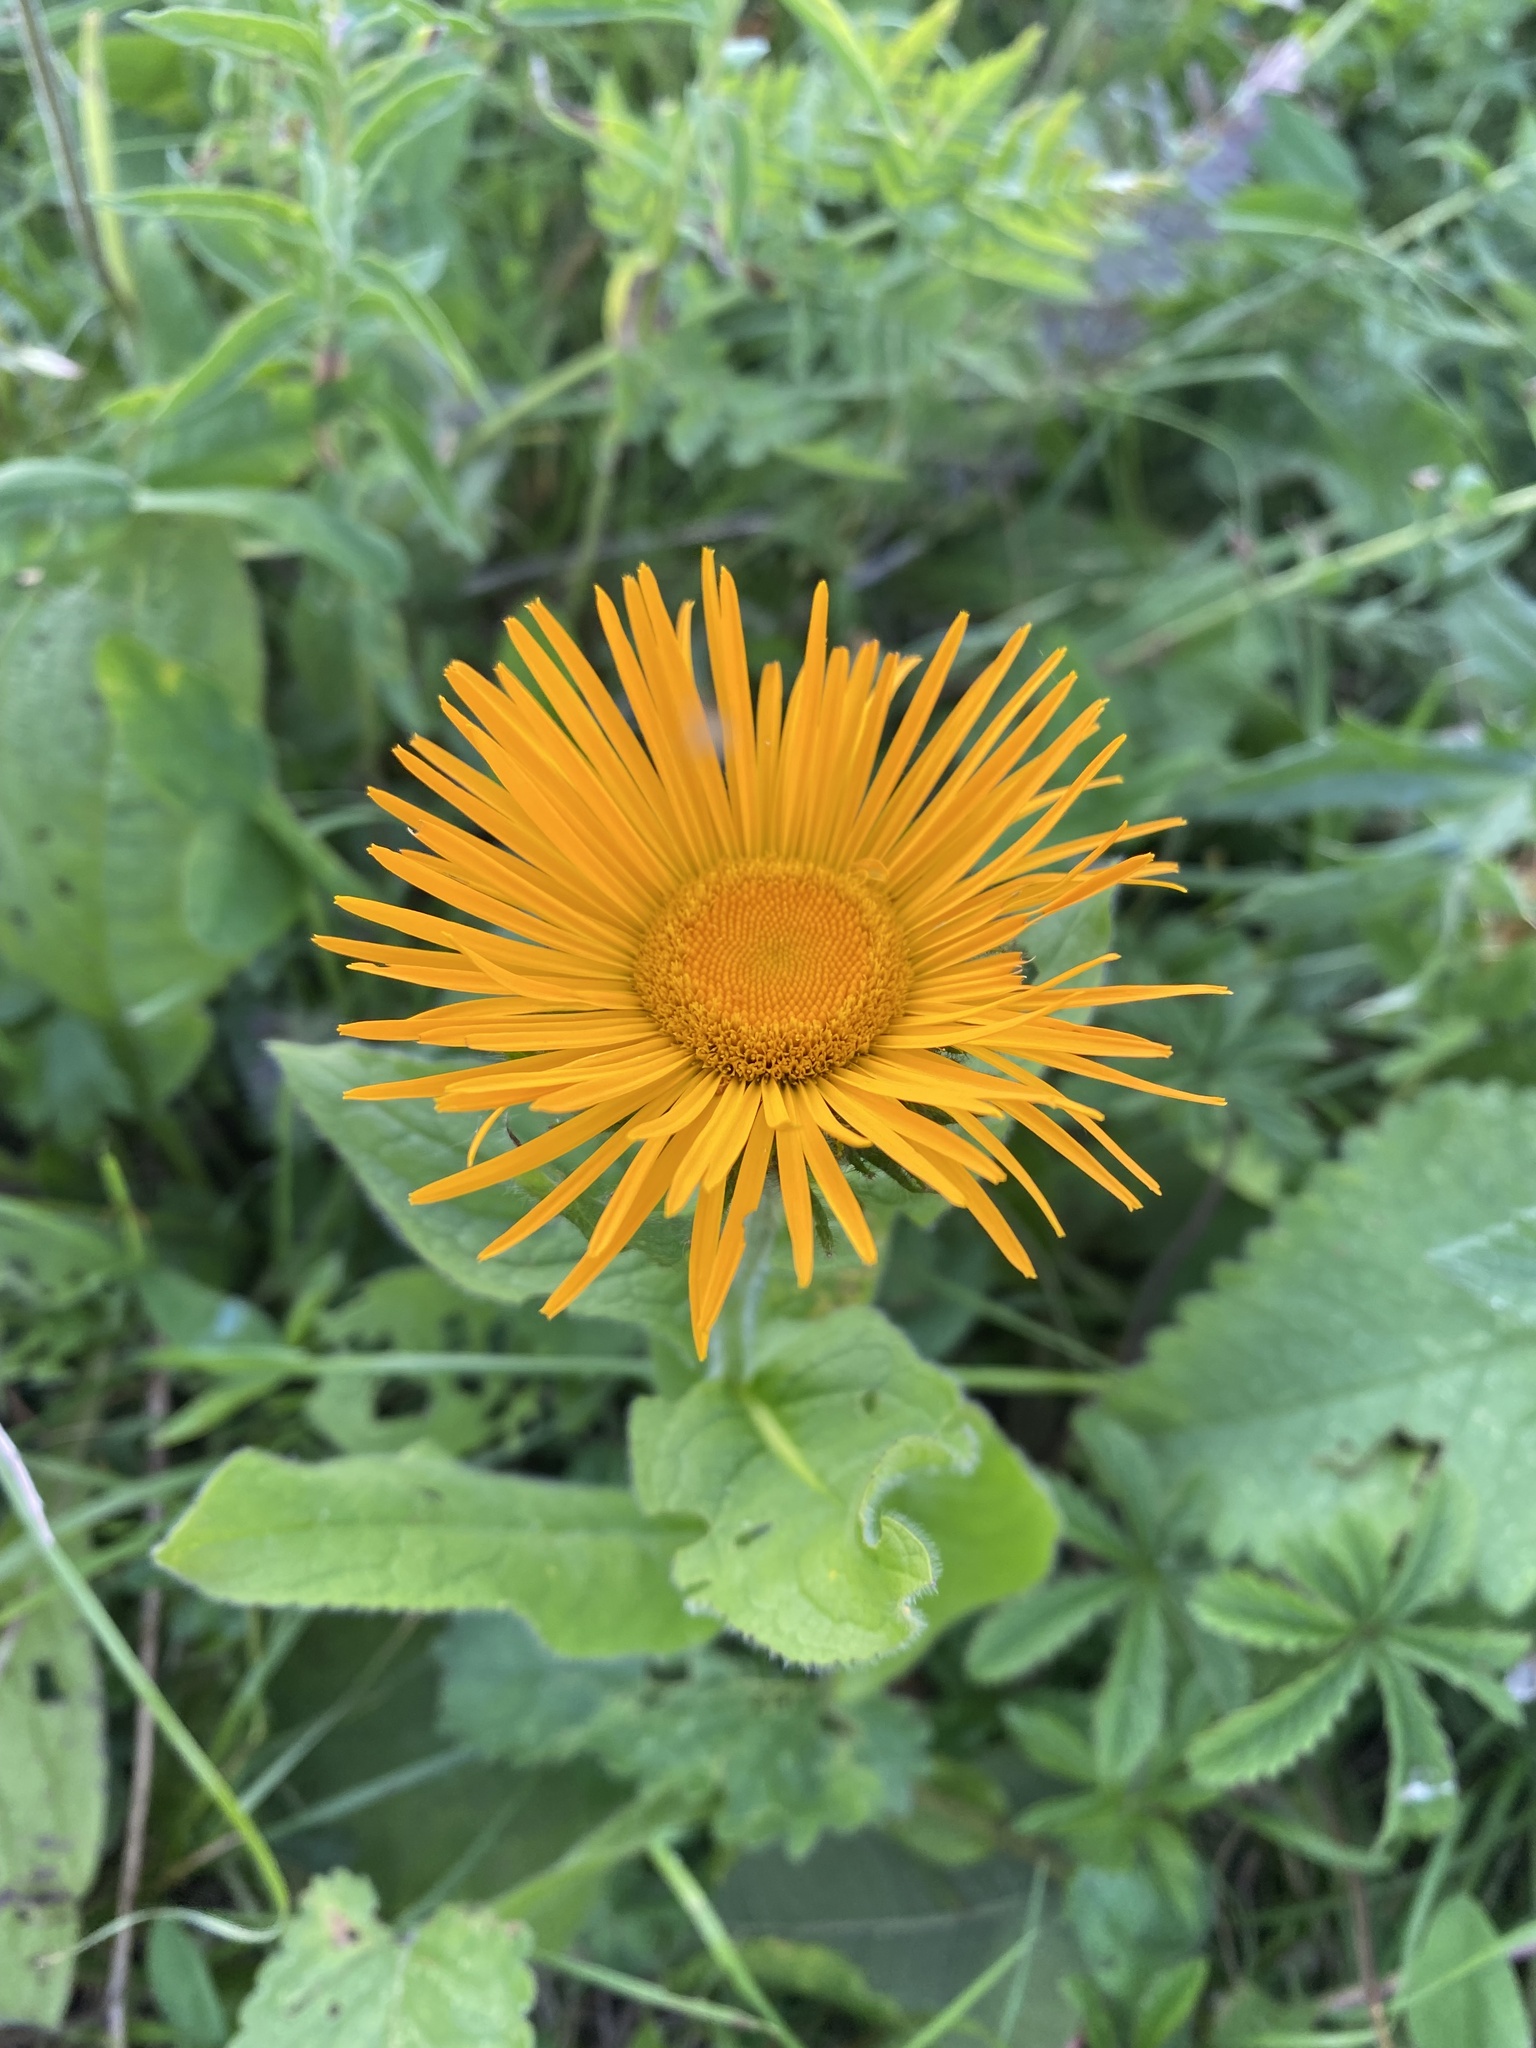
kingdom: Plantae
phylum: Tracheophyta
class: Magnoliopsida
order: Asterales
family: Asteraceae
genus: Pentanema
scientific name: Pentanema orientale
